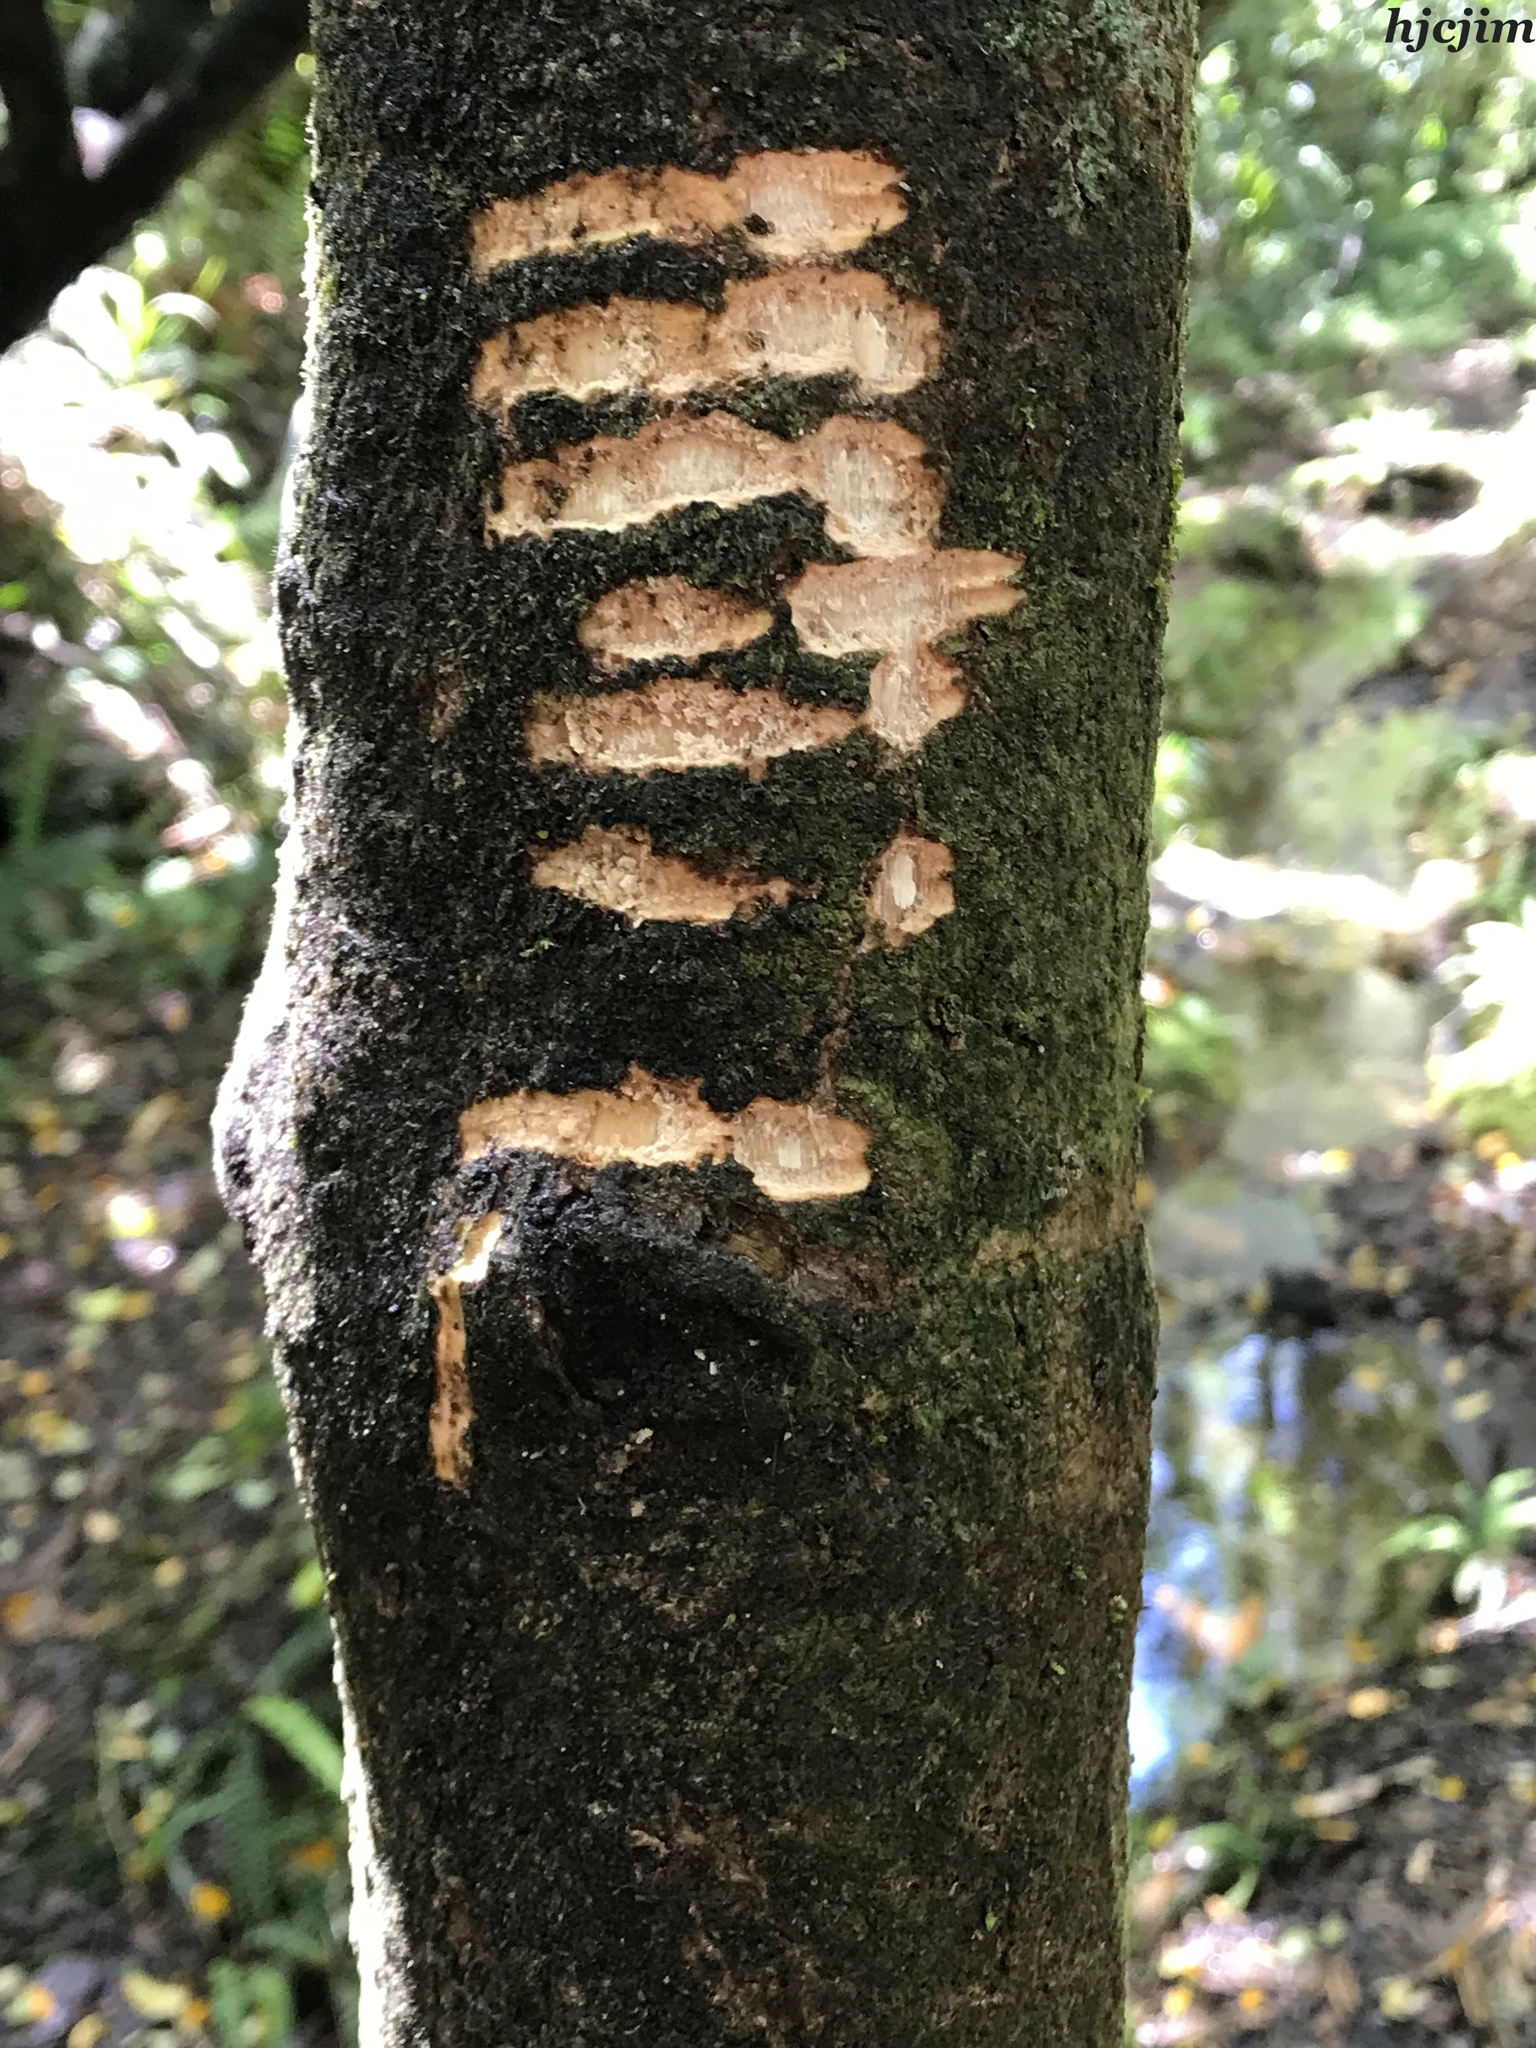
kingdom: Animalia
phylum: Chordata
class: Mammalia
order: Diprotodontia
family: Phalangeridae
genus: Trichosurus
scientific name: Trichosurus vulpecula
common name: Common brushtail
